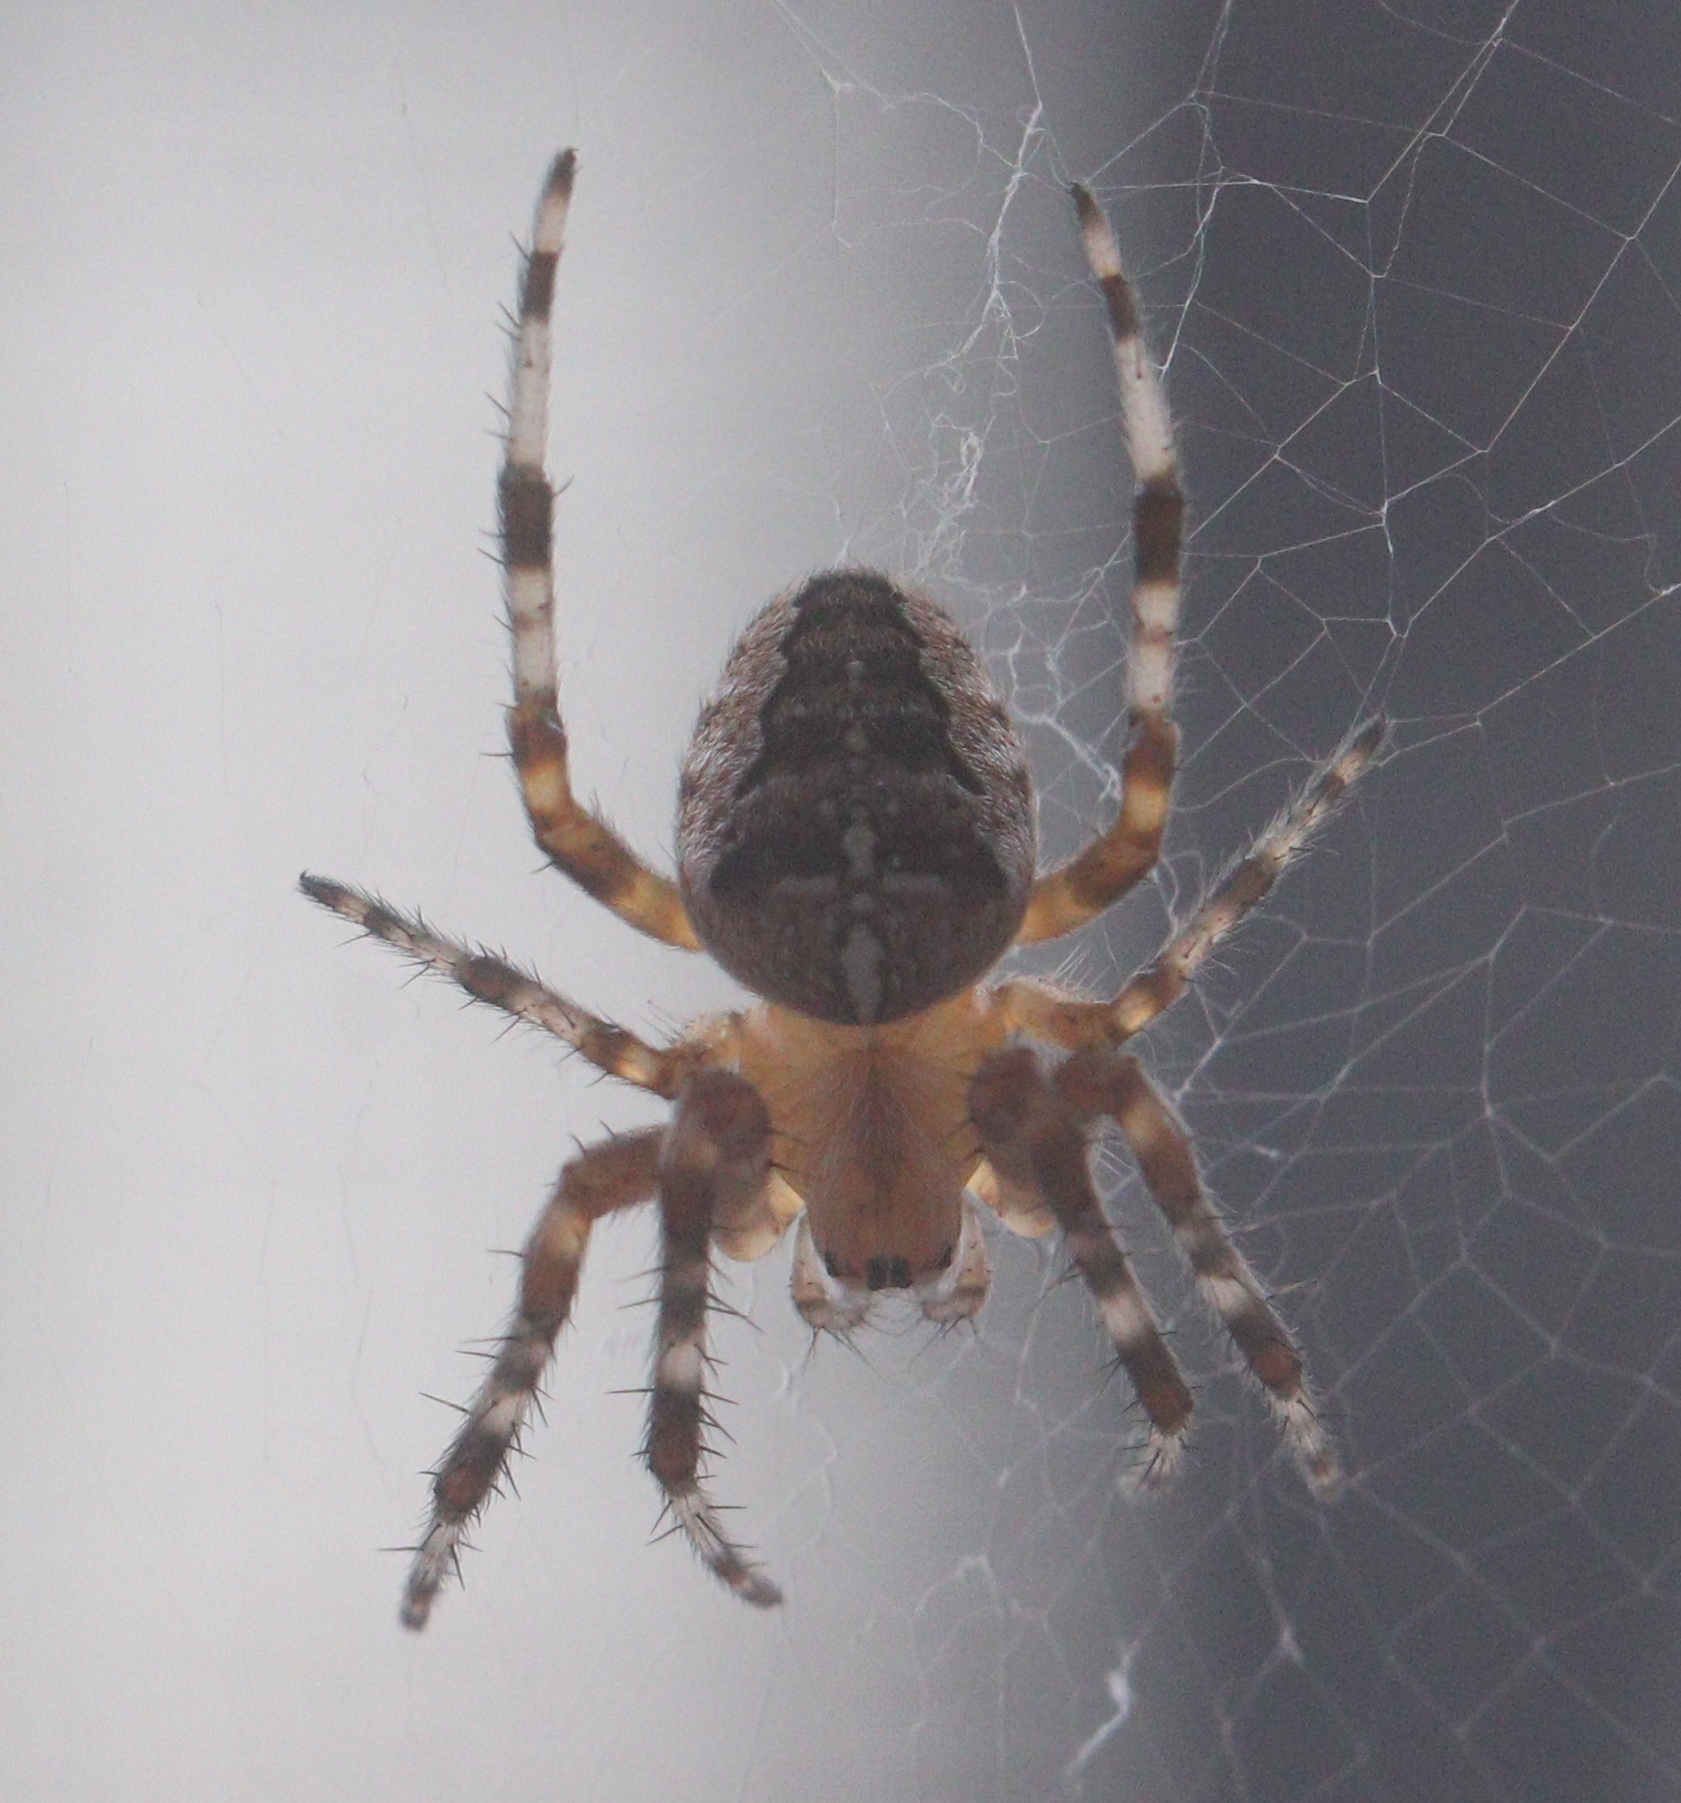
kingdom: Animalia
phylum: Arthropoda
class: Arachnida
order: Araneae
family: Araneidae
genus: Araneus
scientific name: Araneus diadematus
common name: Cross orbweaver
